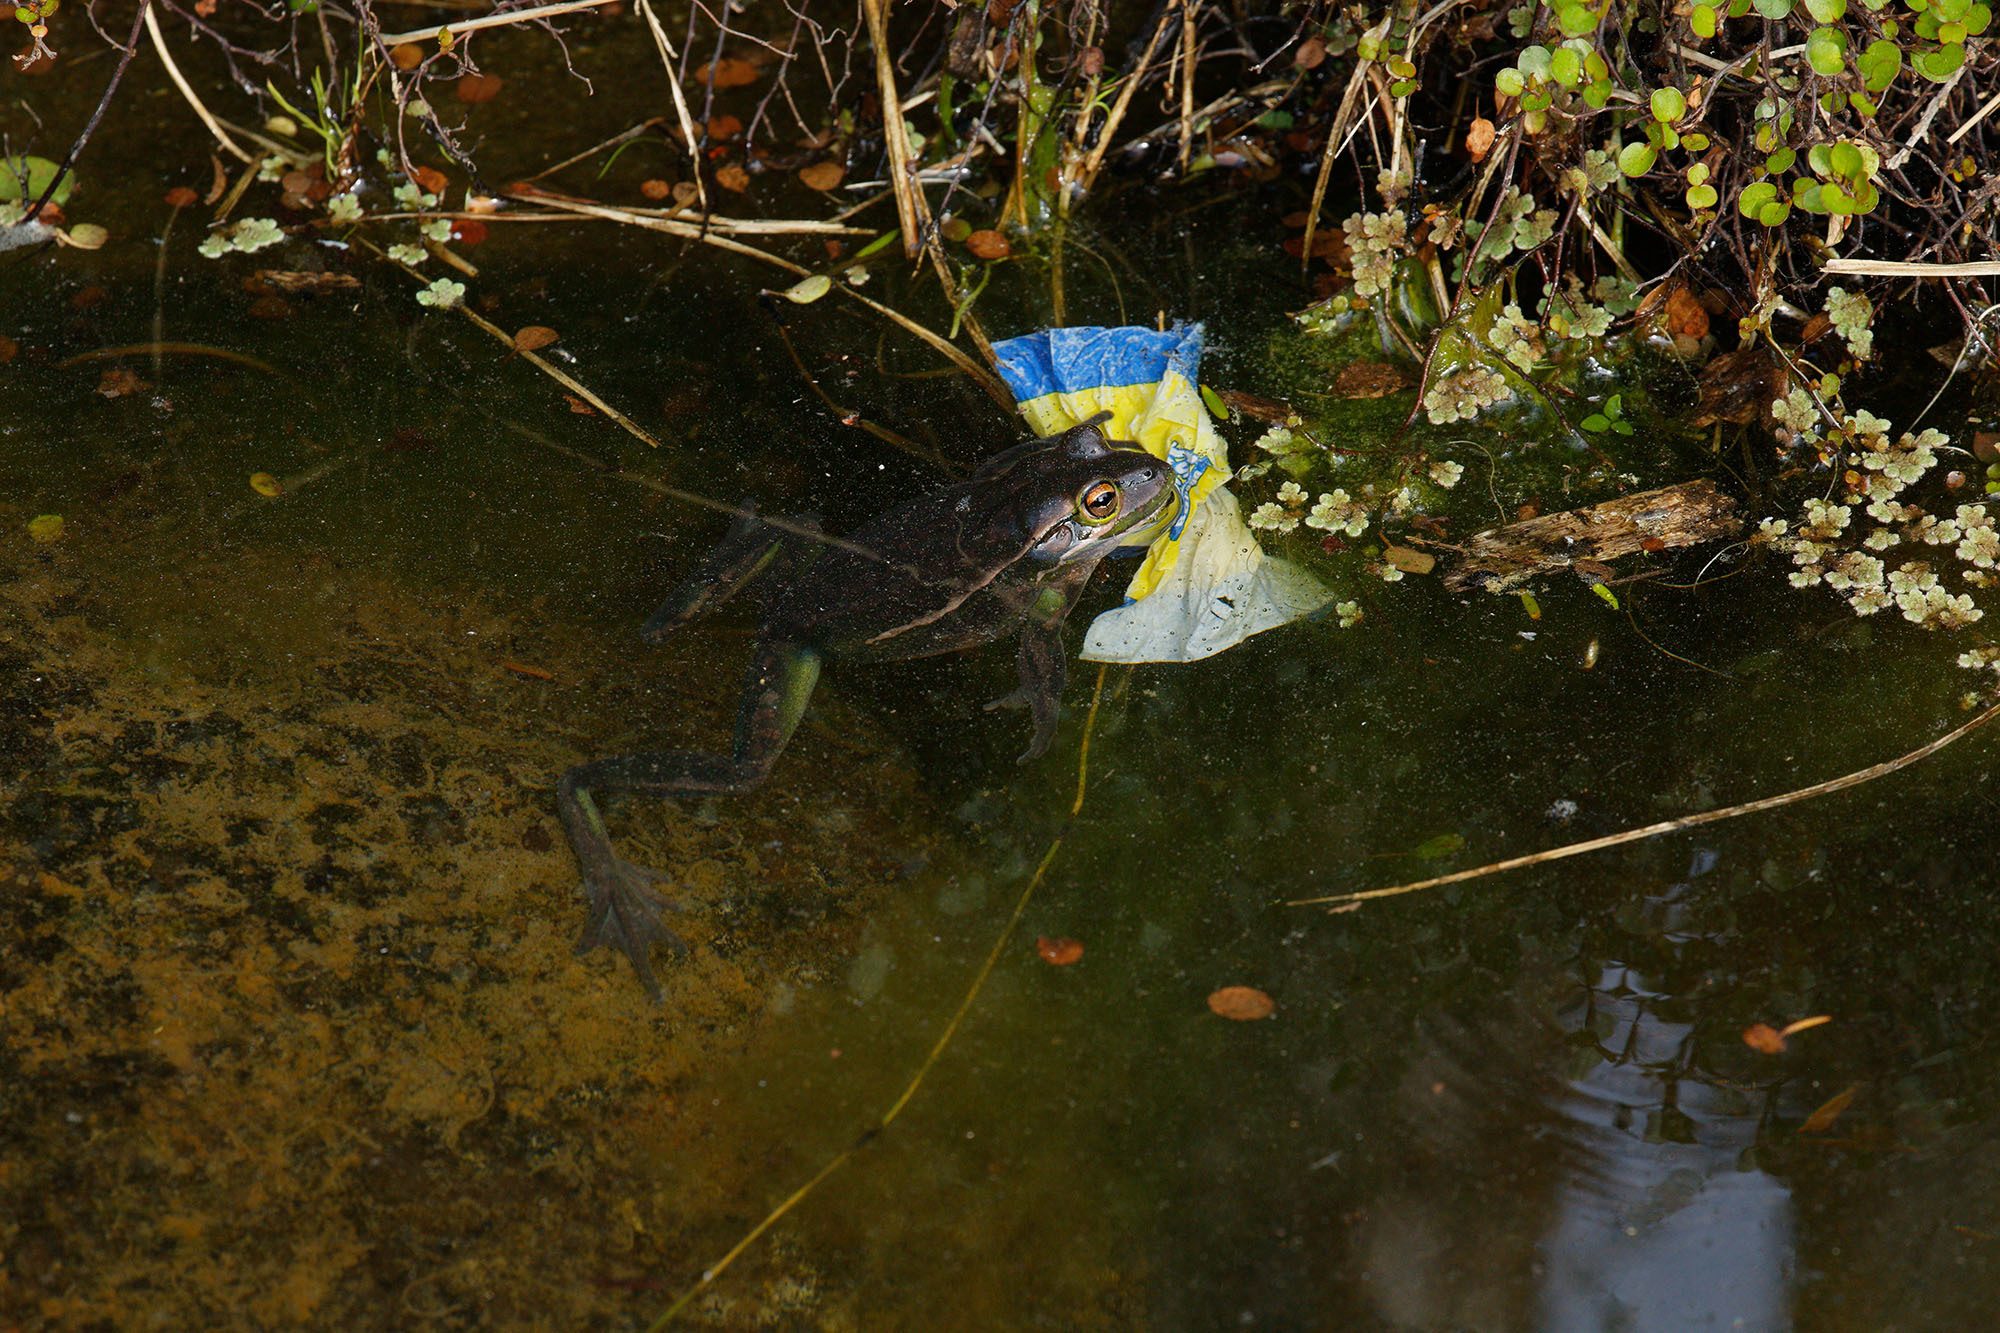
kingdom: Animalia
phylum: Chordata
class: Amphibia
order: Anura
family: Pelodryadidae
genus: Ranoidea
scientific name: Ranoidea aurea
